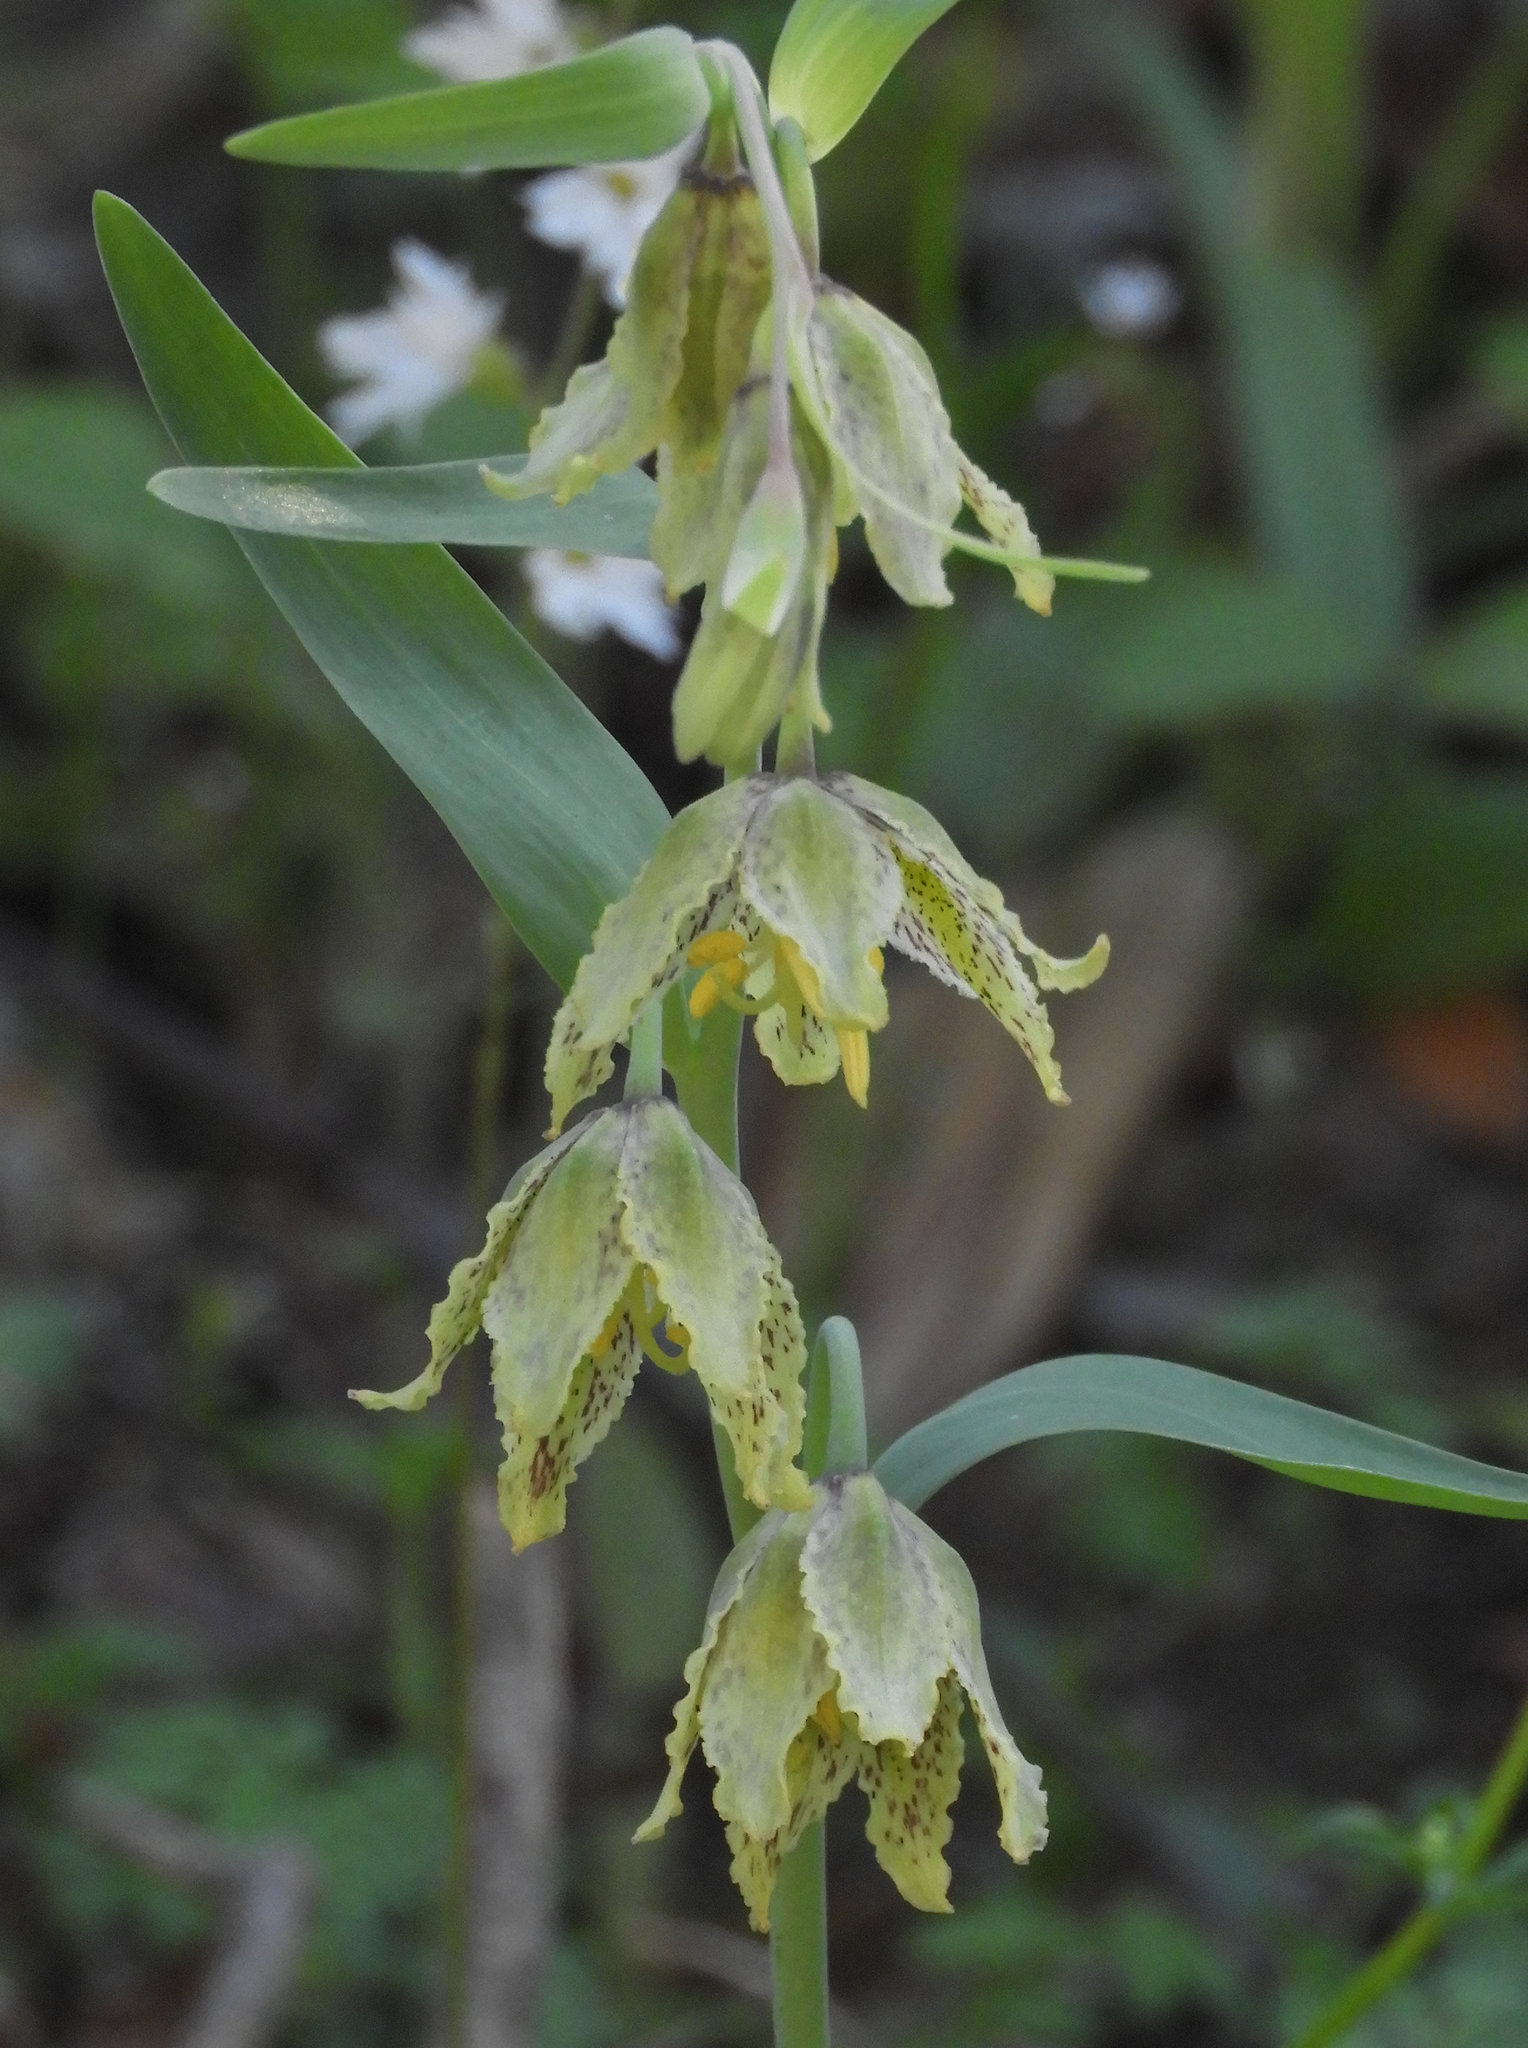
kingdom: Plantae
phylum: Tracheophyta
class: Liliopsida
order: Liliales
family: Liliaceae
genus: Fritillaria
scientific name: Fritillaria affinis
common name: Ojai fritillary
